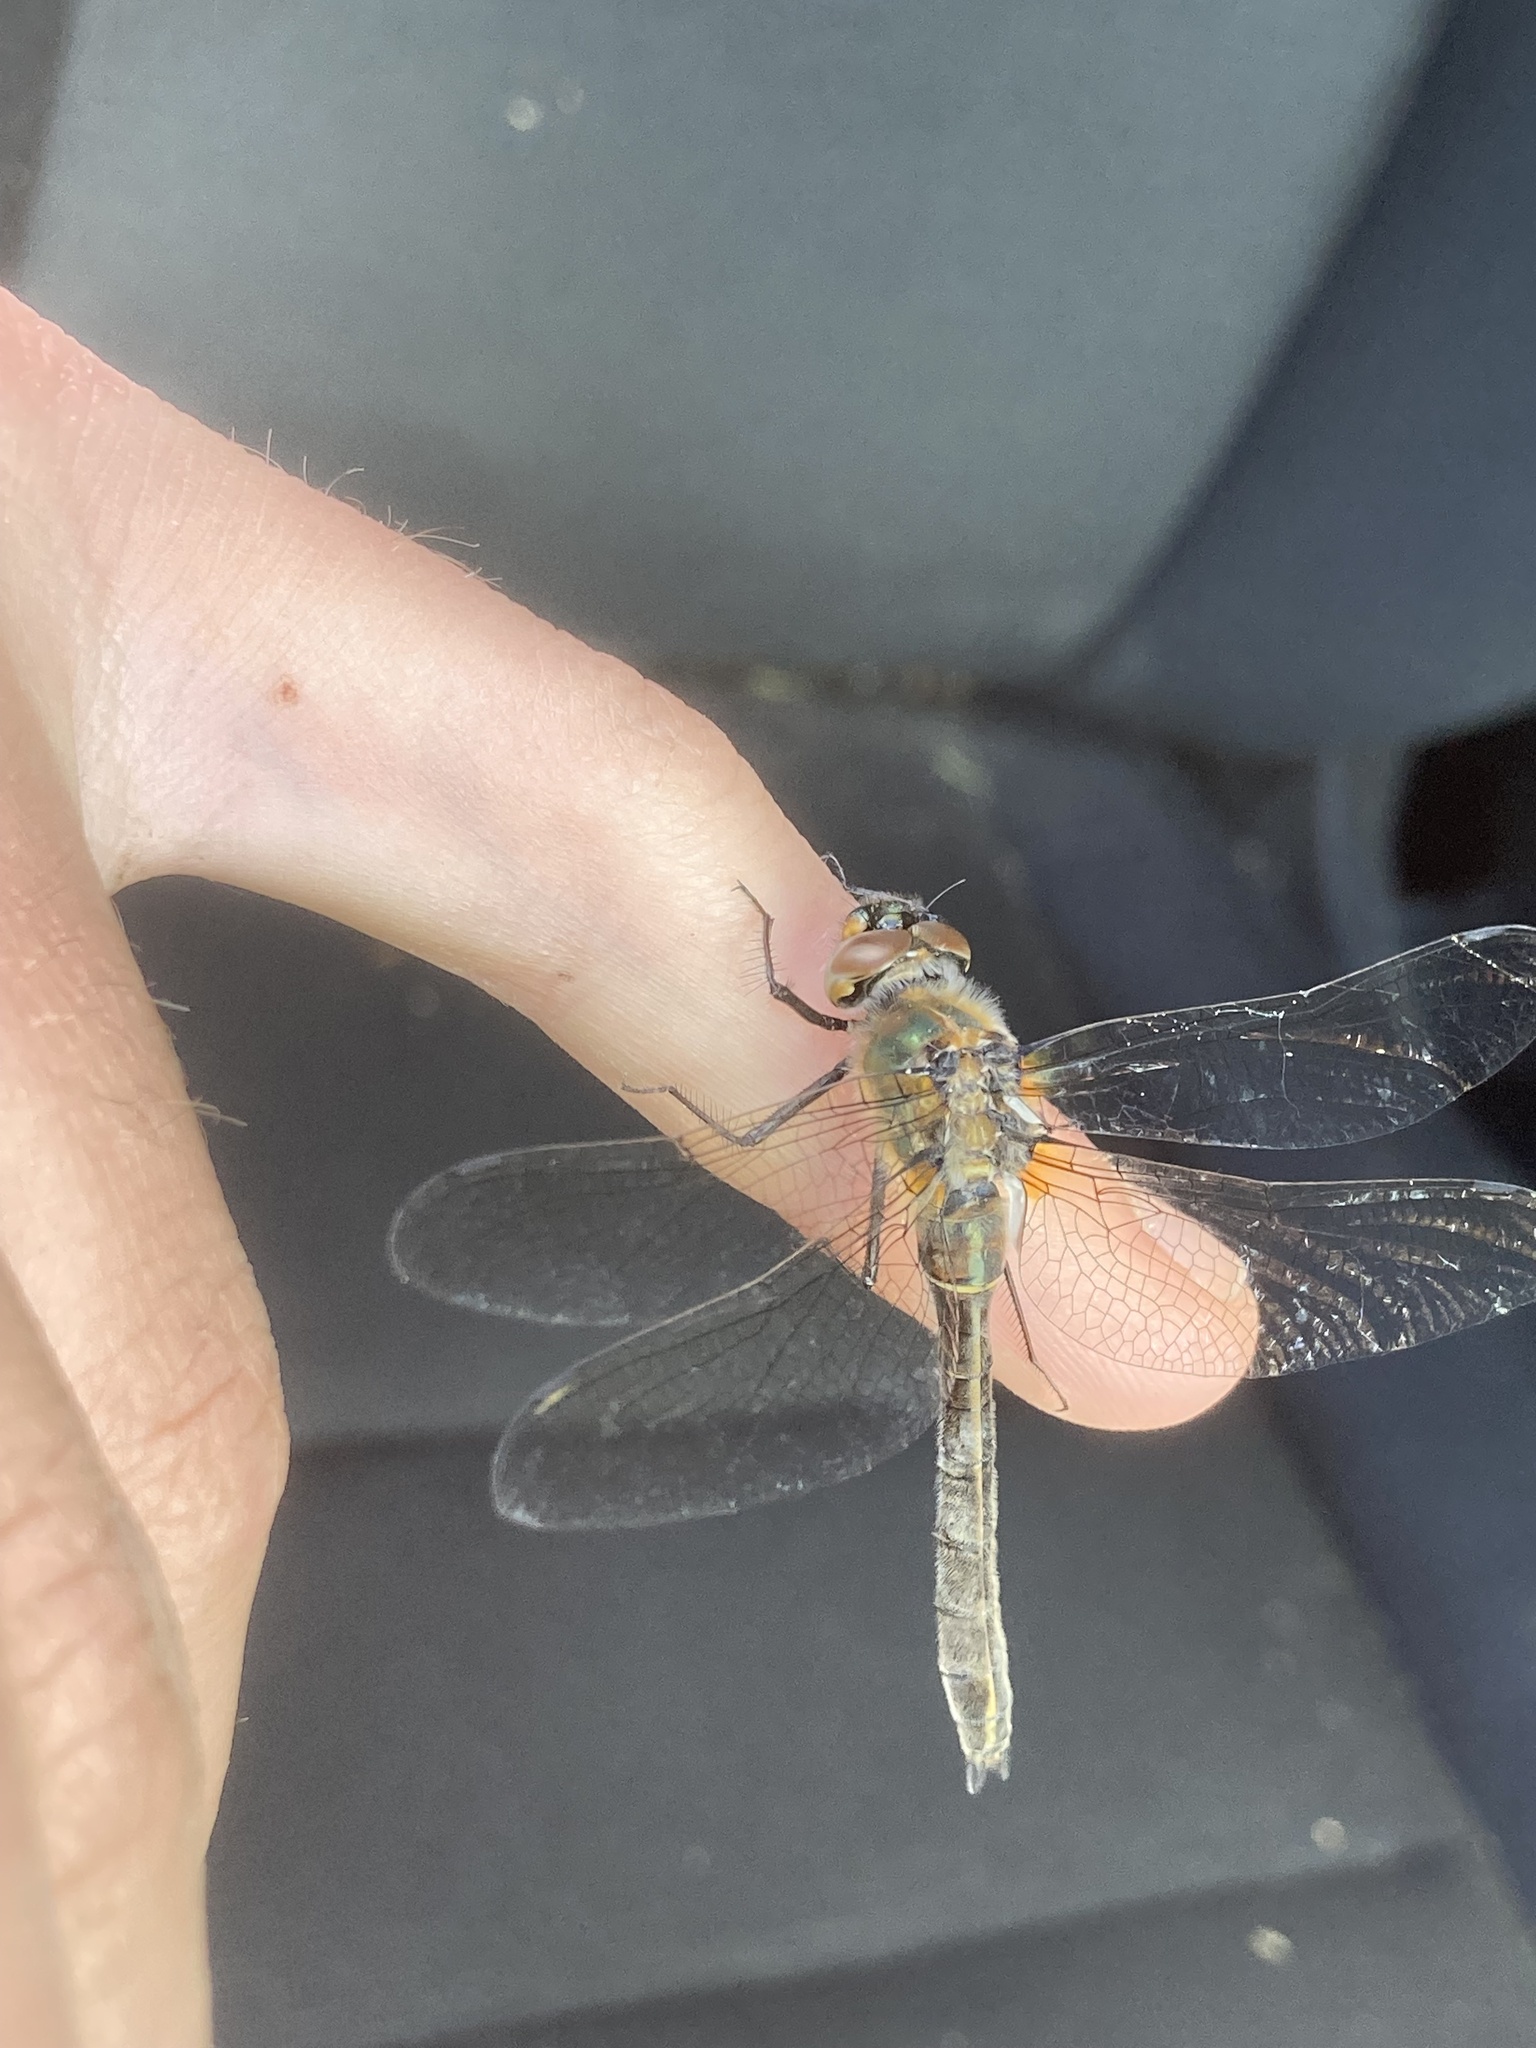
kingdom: Animalia
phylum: Arthropoda
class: Insecta
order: Odonata
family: Corduliidae
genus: Cordulia
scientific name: Cordulia shurtleffii
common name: American emerald
